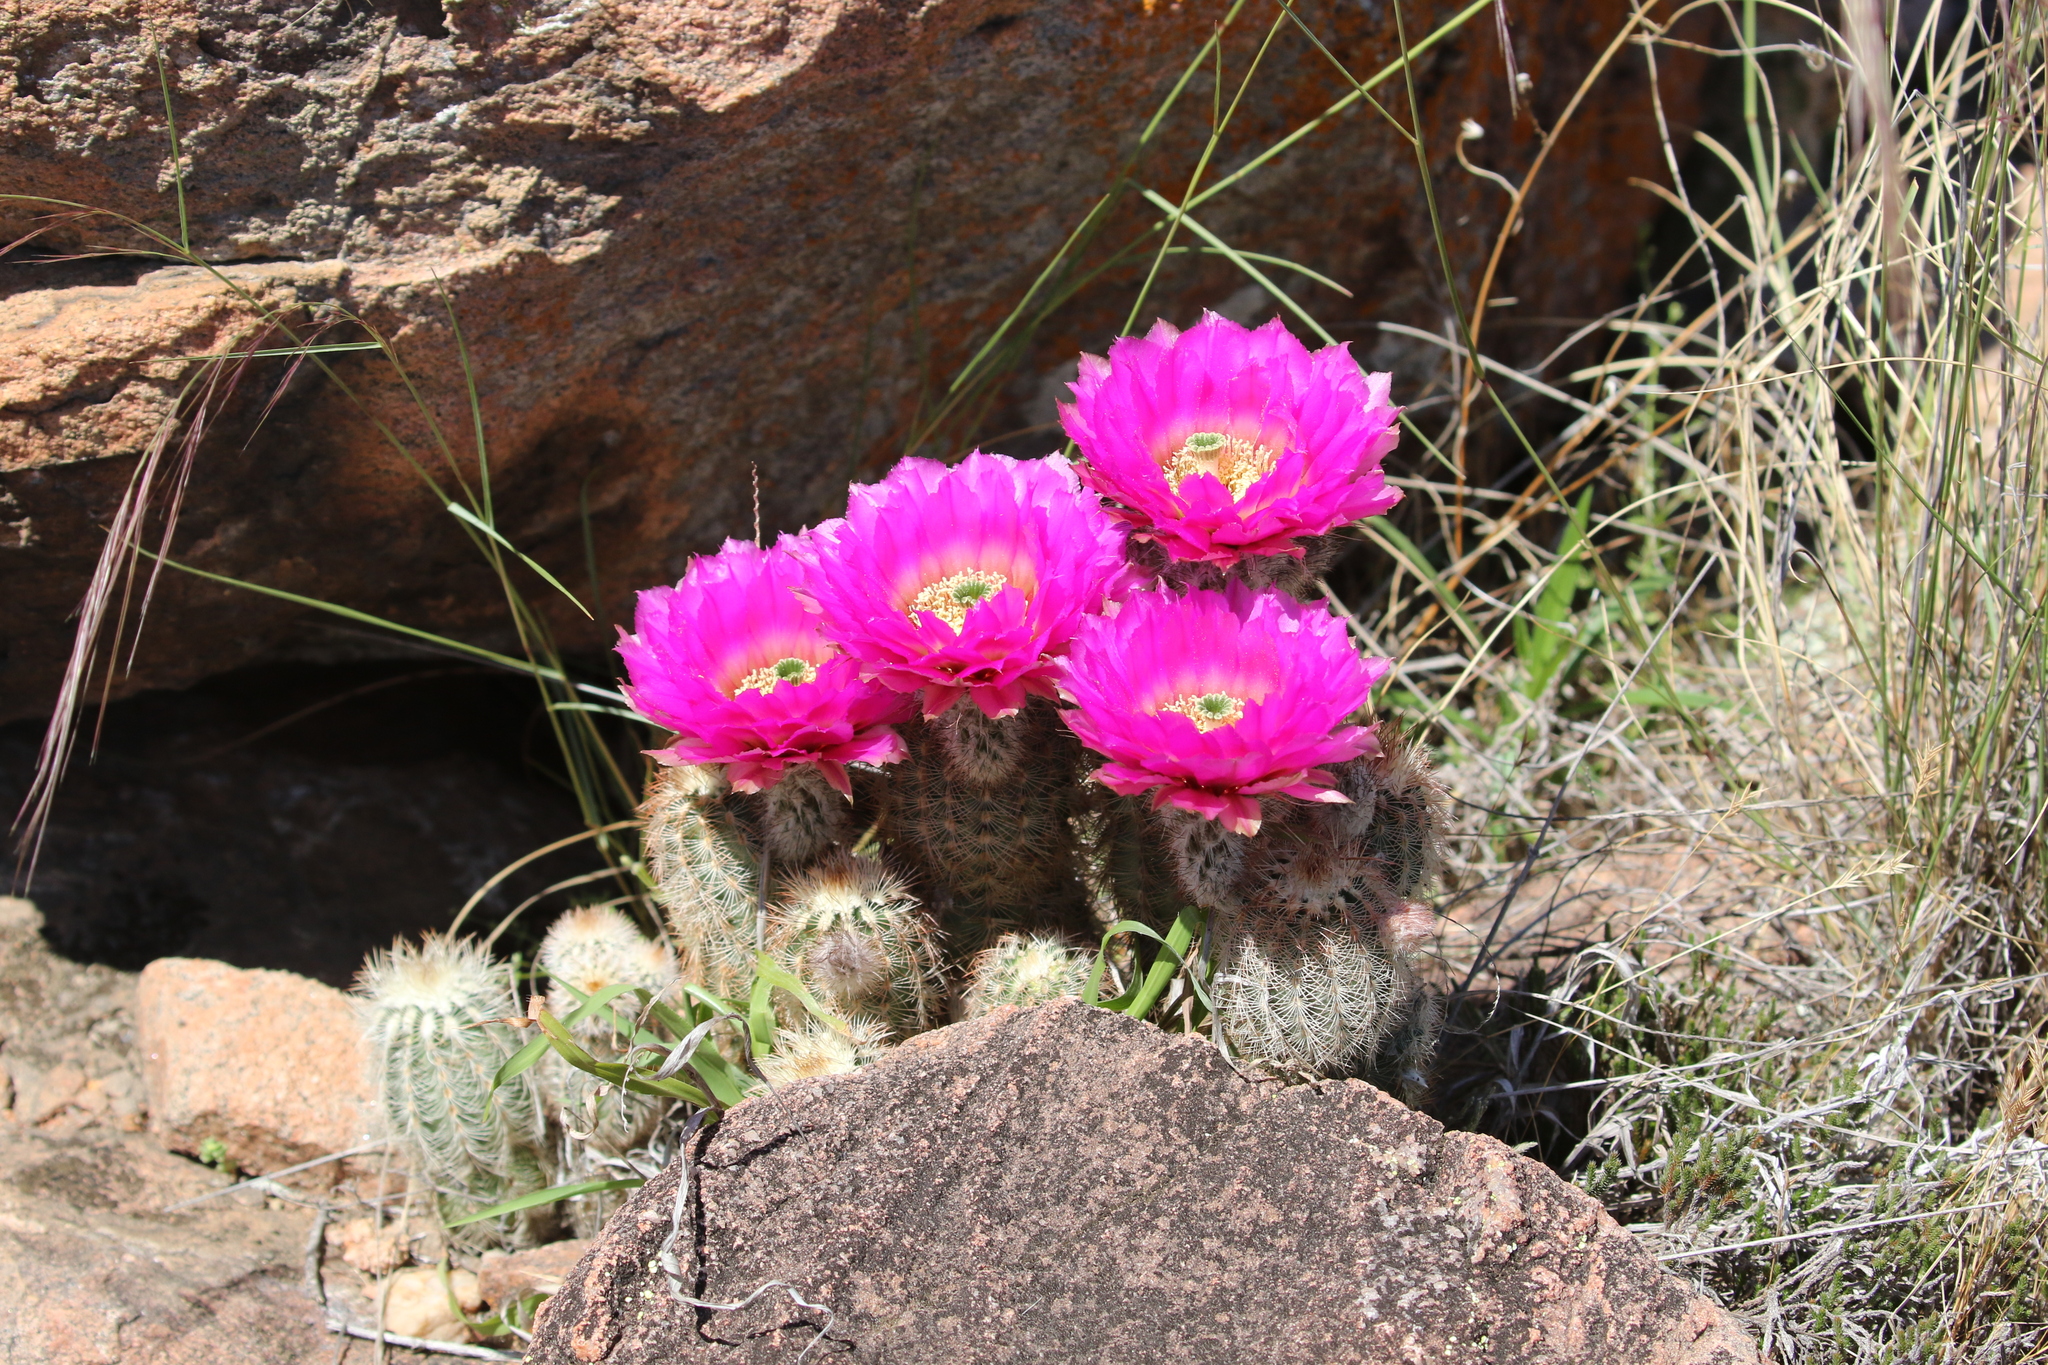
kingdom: Plantae
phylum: Tracheophyta
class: Magnoliopsida
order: Caryophyllales
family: Cactaceae
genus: Echinocereus
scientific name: Echinocereus reichenbachii
